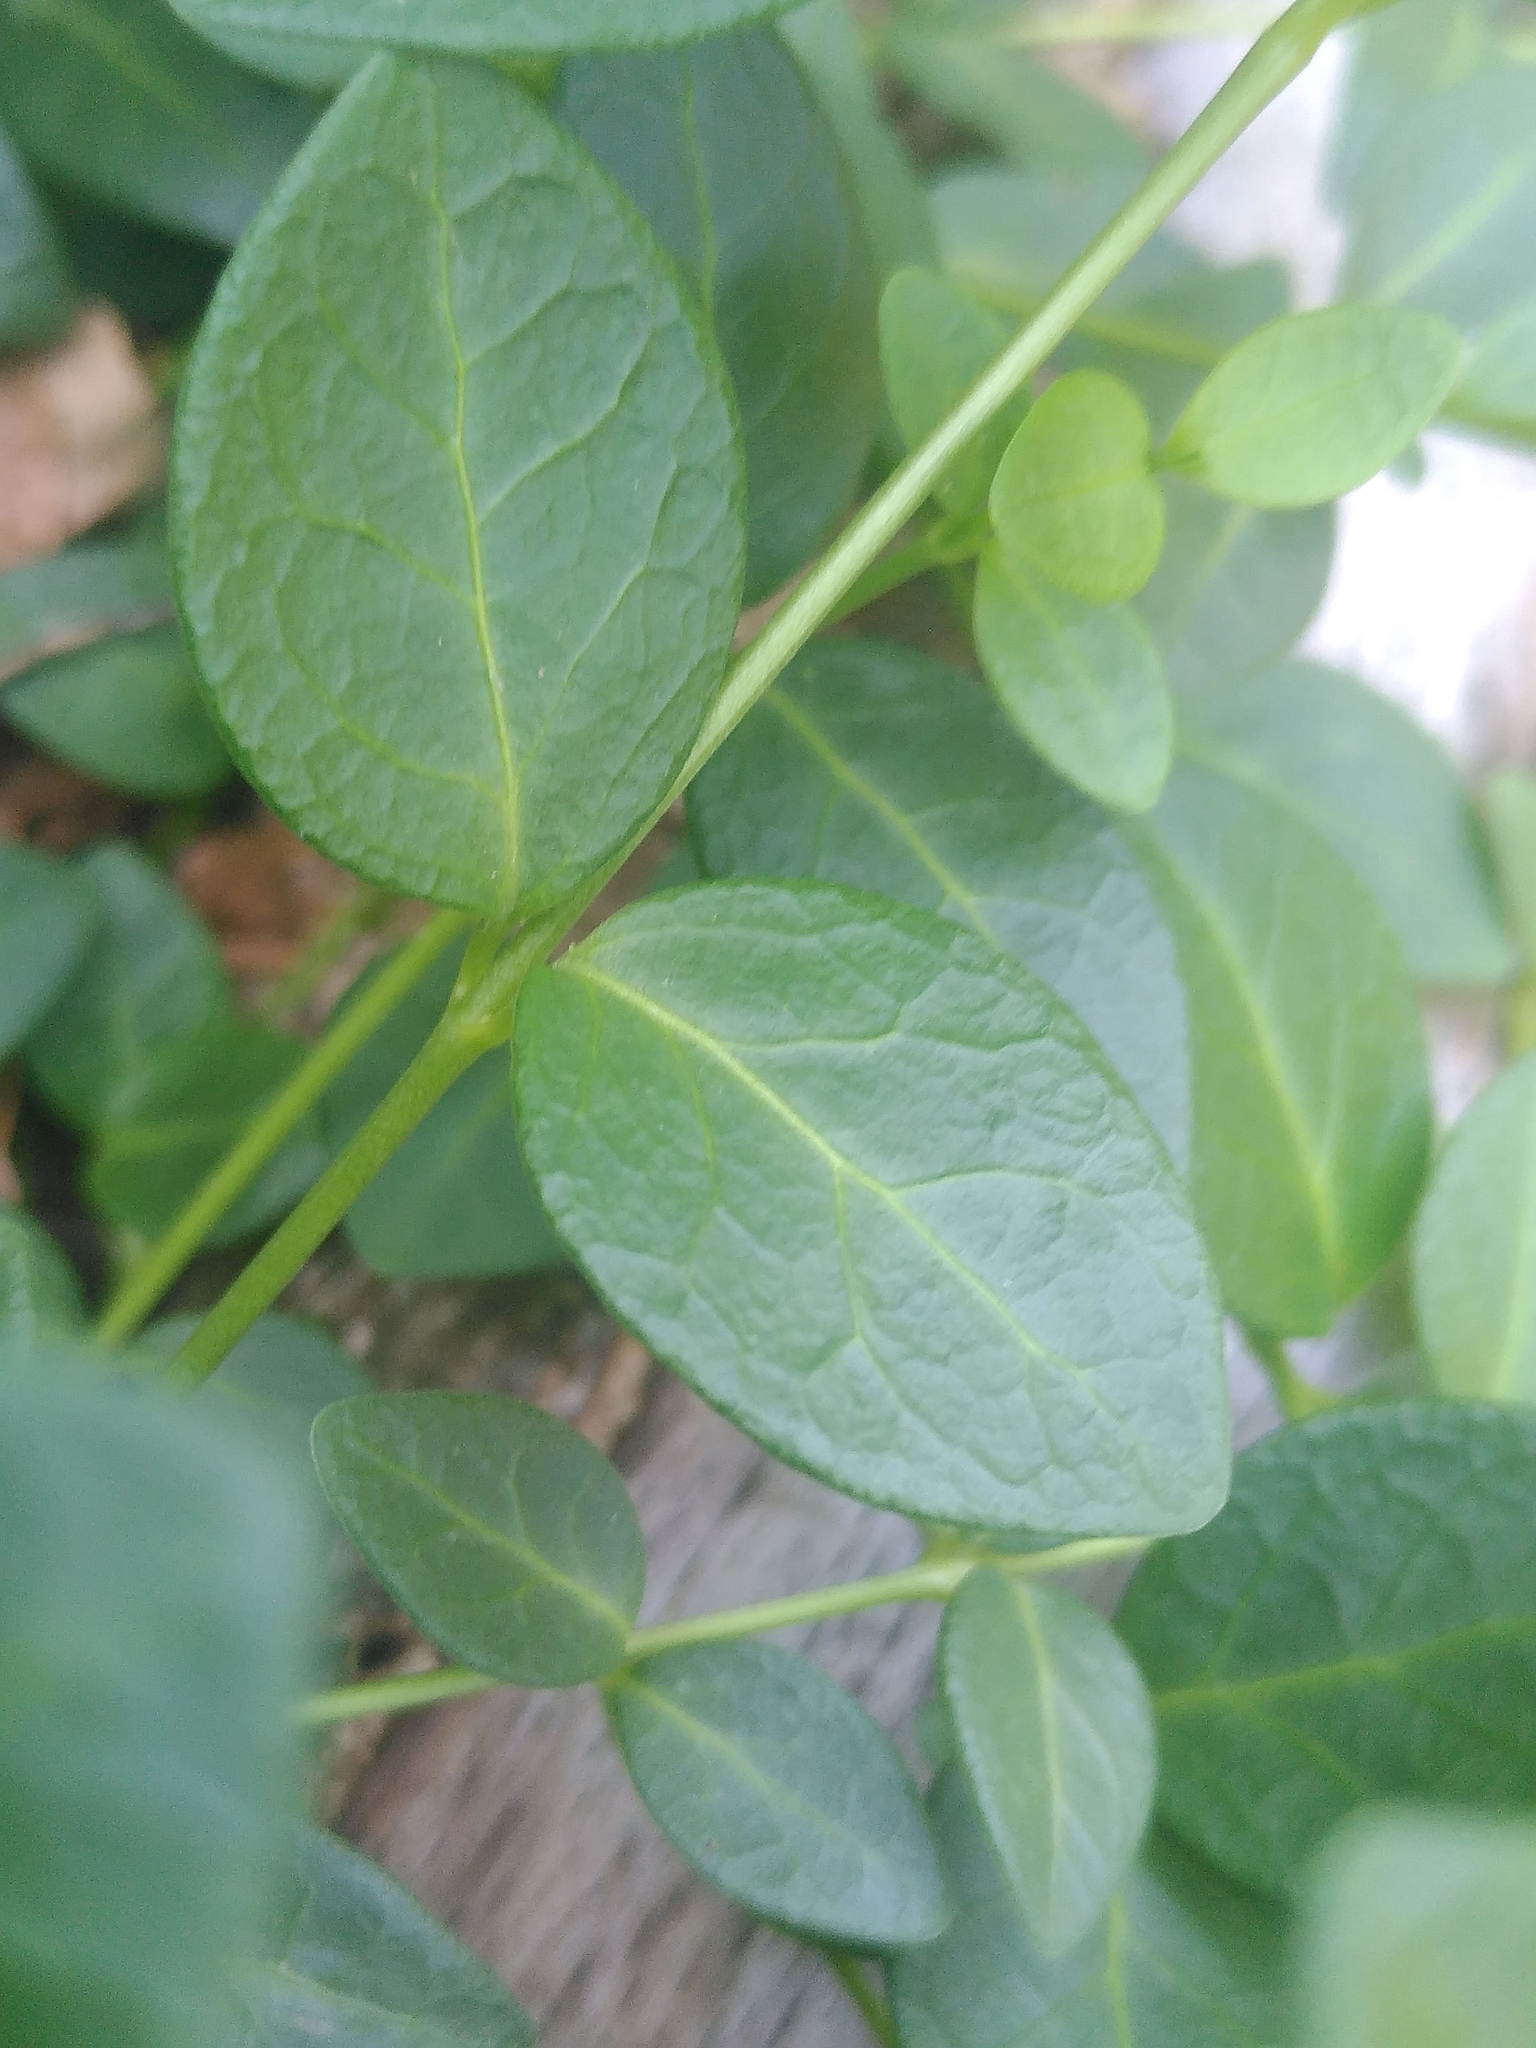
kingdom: Plantae
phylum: Tracheophyta
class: Magnoliopsida
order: Gentianales
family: Apocynaceae
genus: Vinca
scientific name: Vinca minor
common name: Lesser periwinkle
